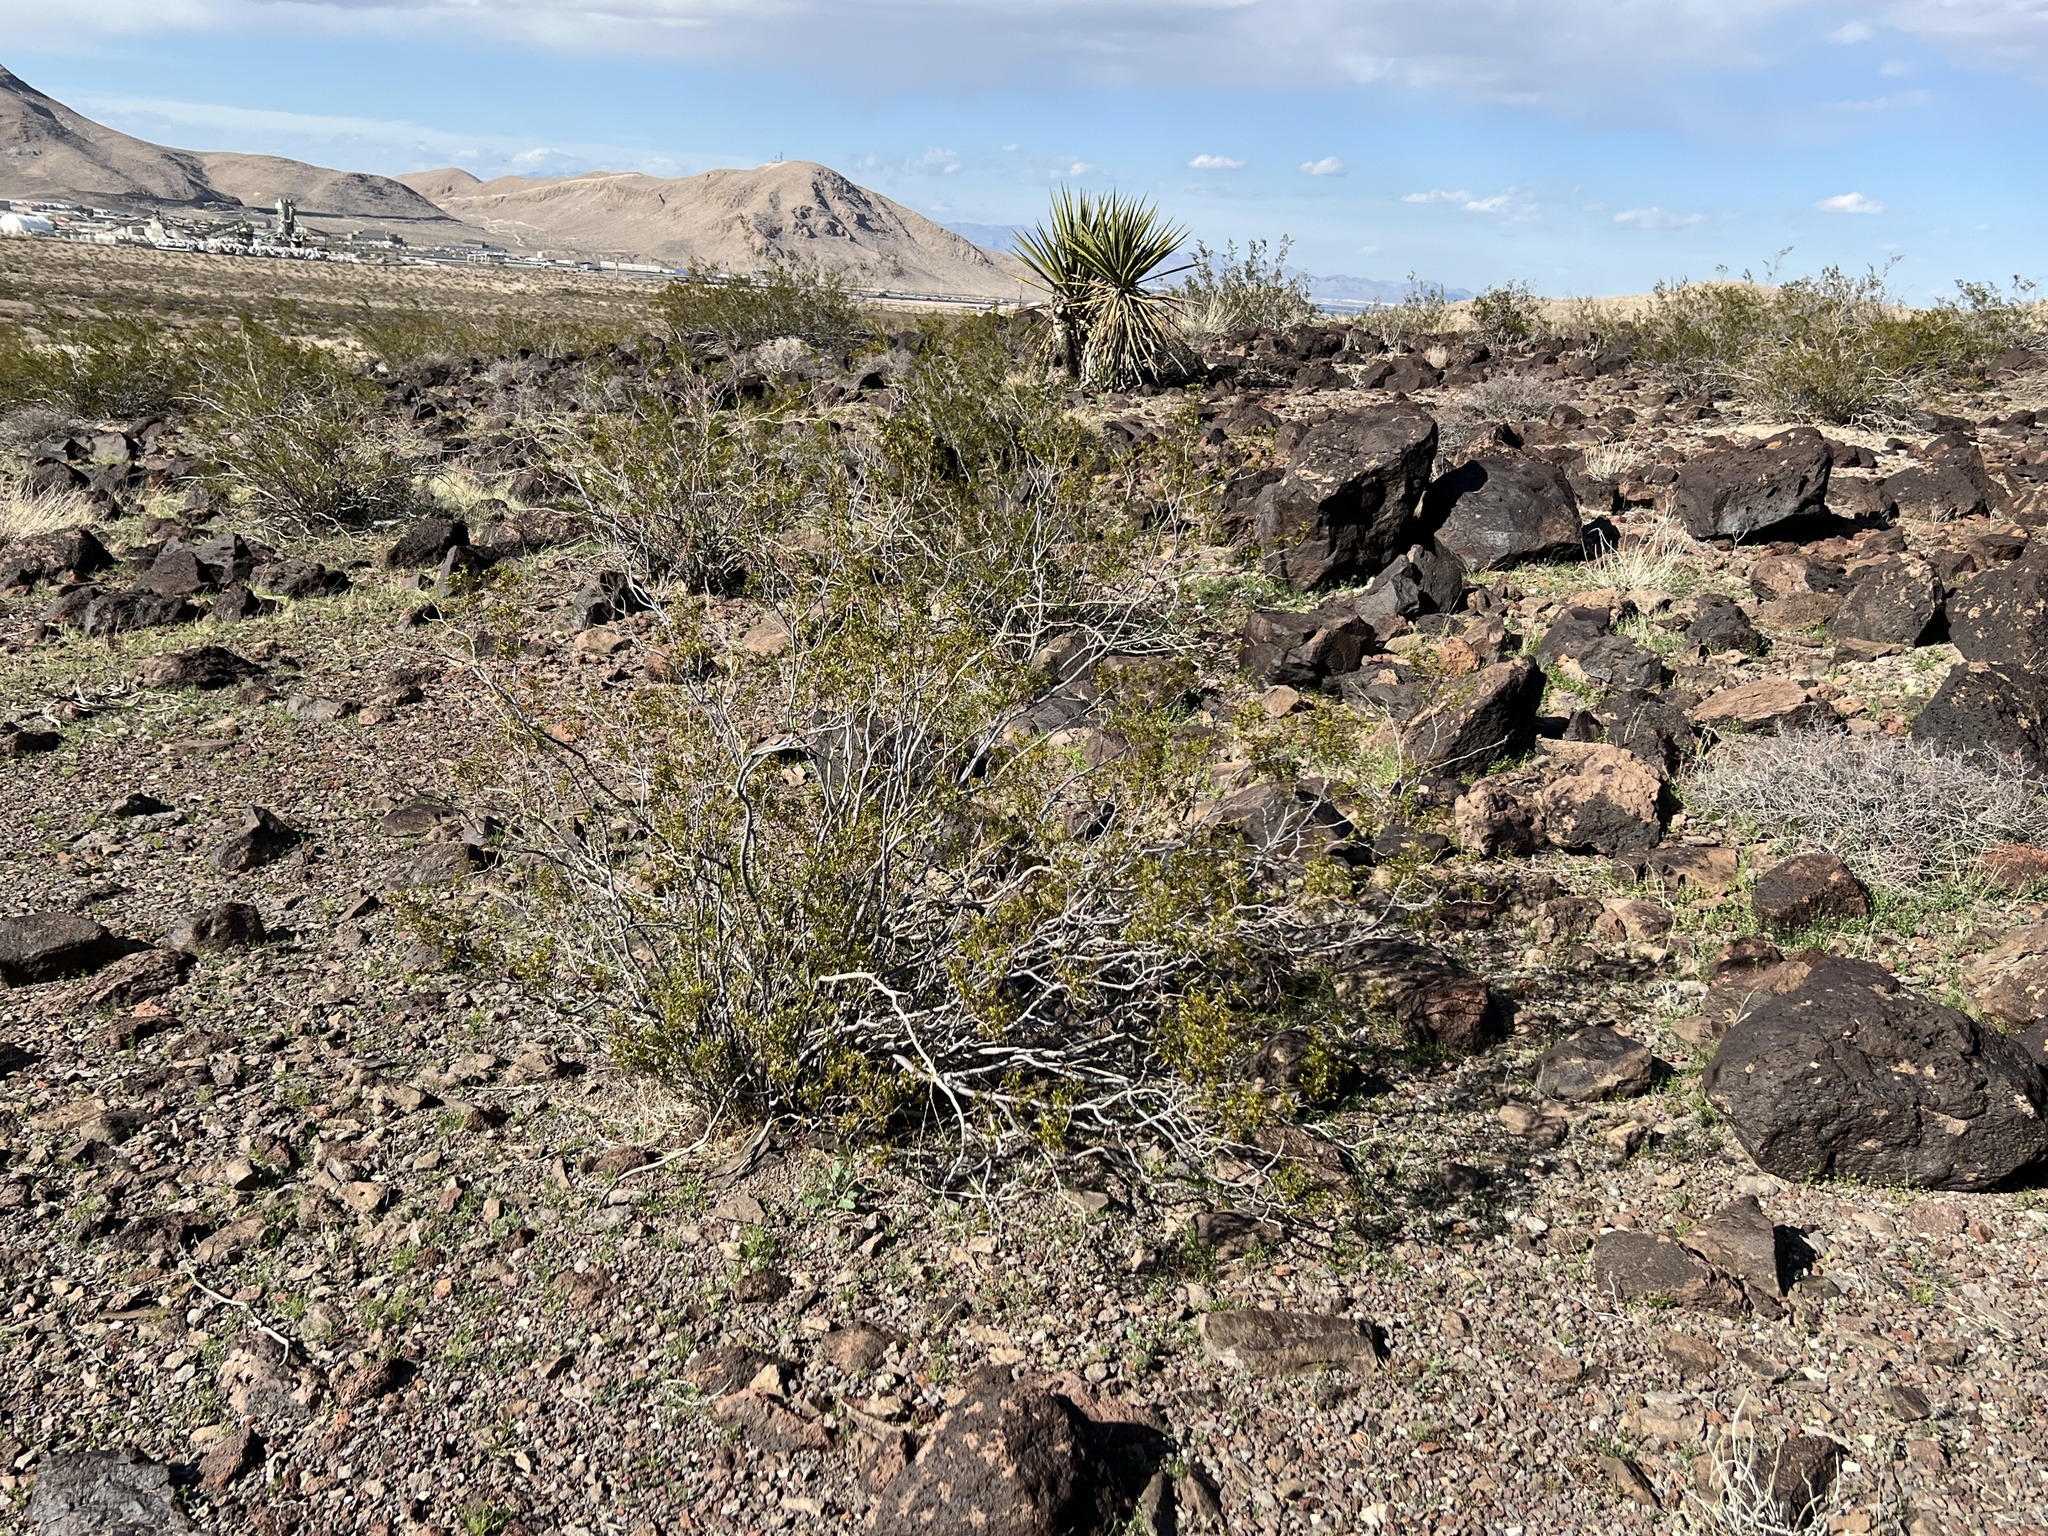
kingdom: Plantae
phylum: Tracheophyta
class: Magnoliopsida
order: Zygophyllales
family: Zygophyllaceae
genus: Larrea
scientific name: Larrea tridentata
